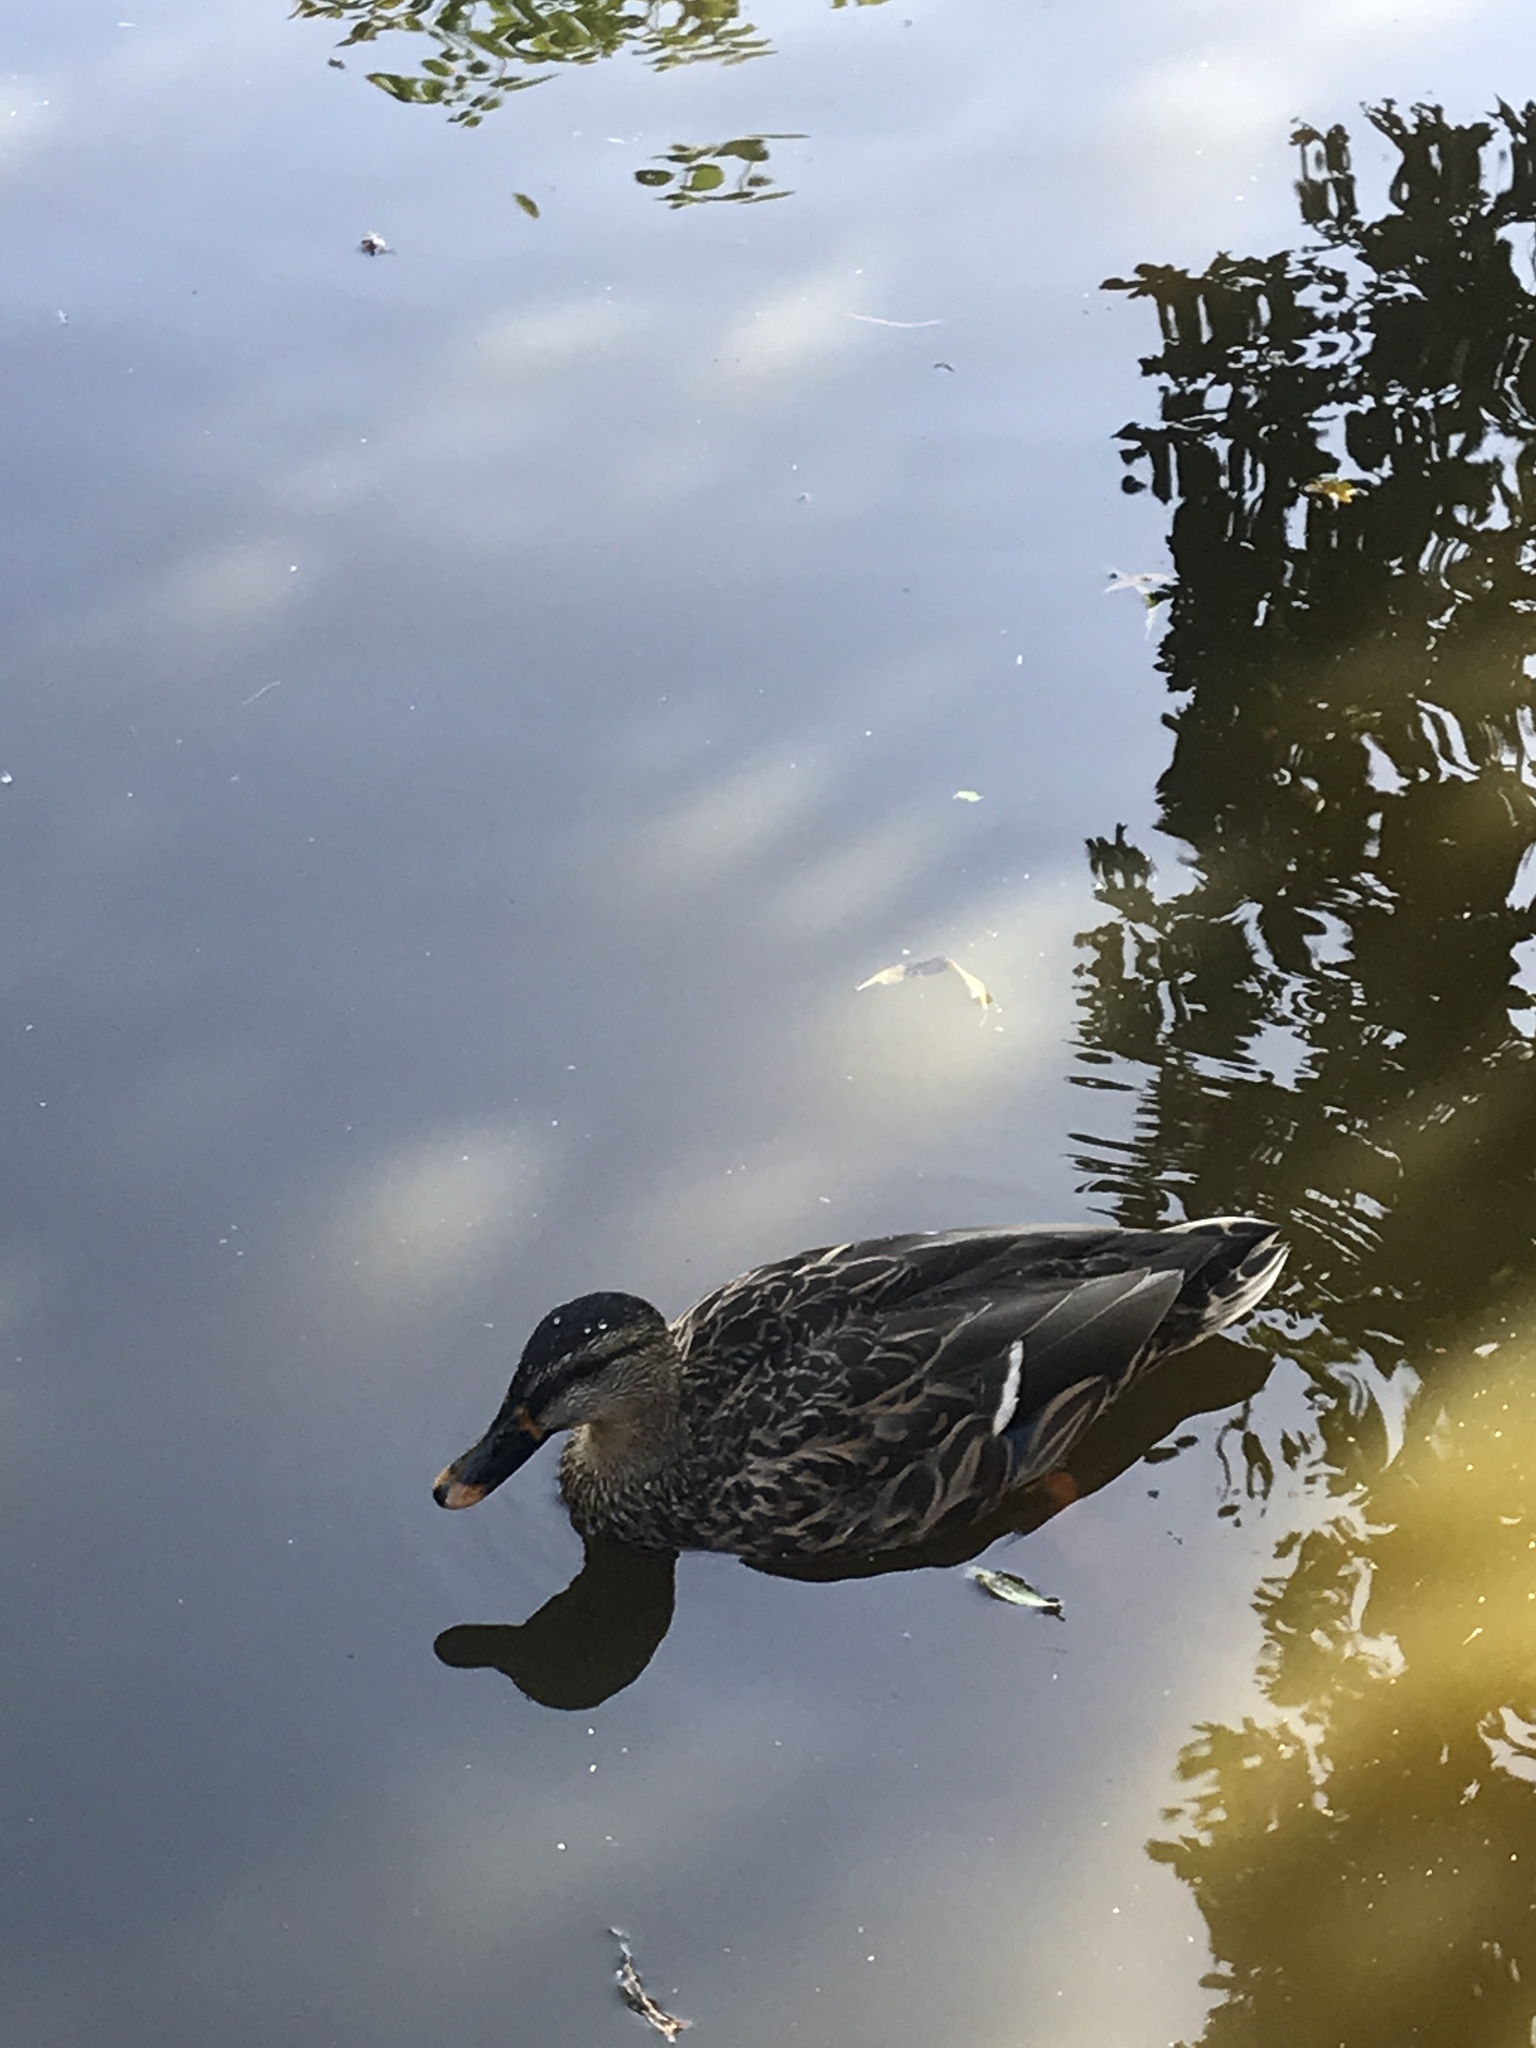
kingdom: Animalia
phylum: Chordata
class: Aves
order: Anseriformes
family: Anatidae
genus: Anas
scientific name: Anas platyrhynchos
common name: Mallard
